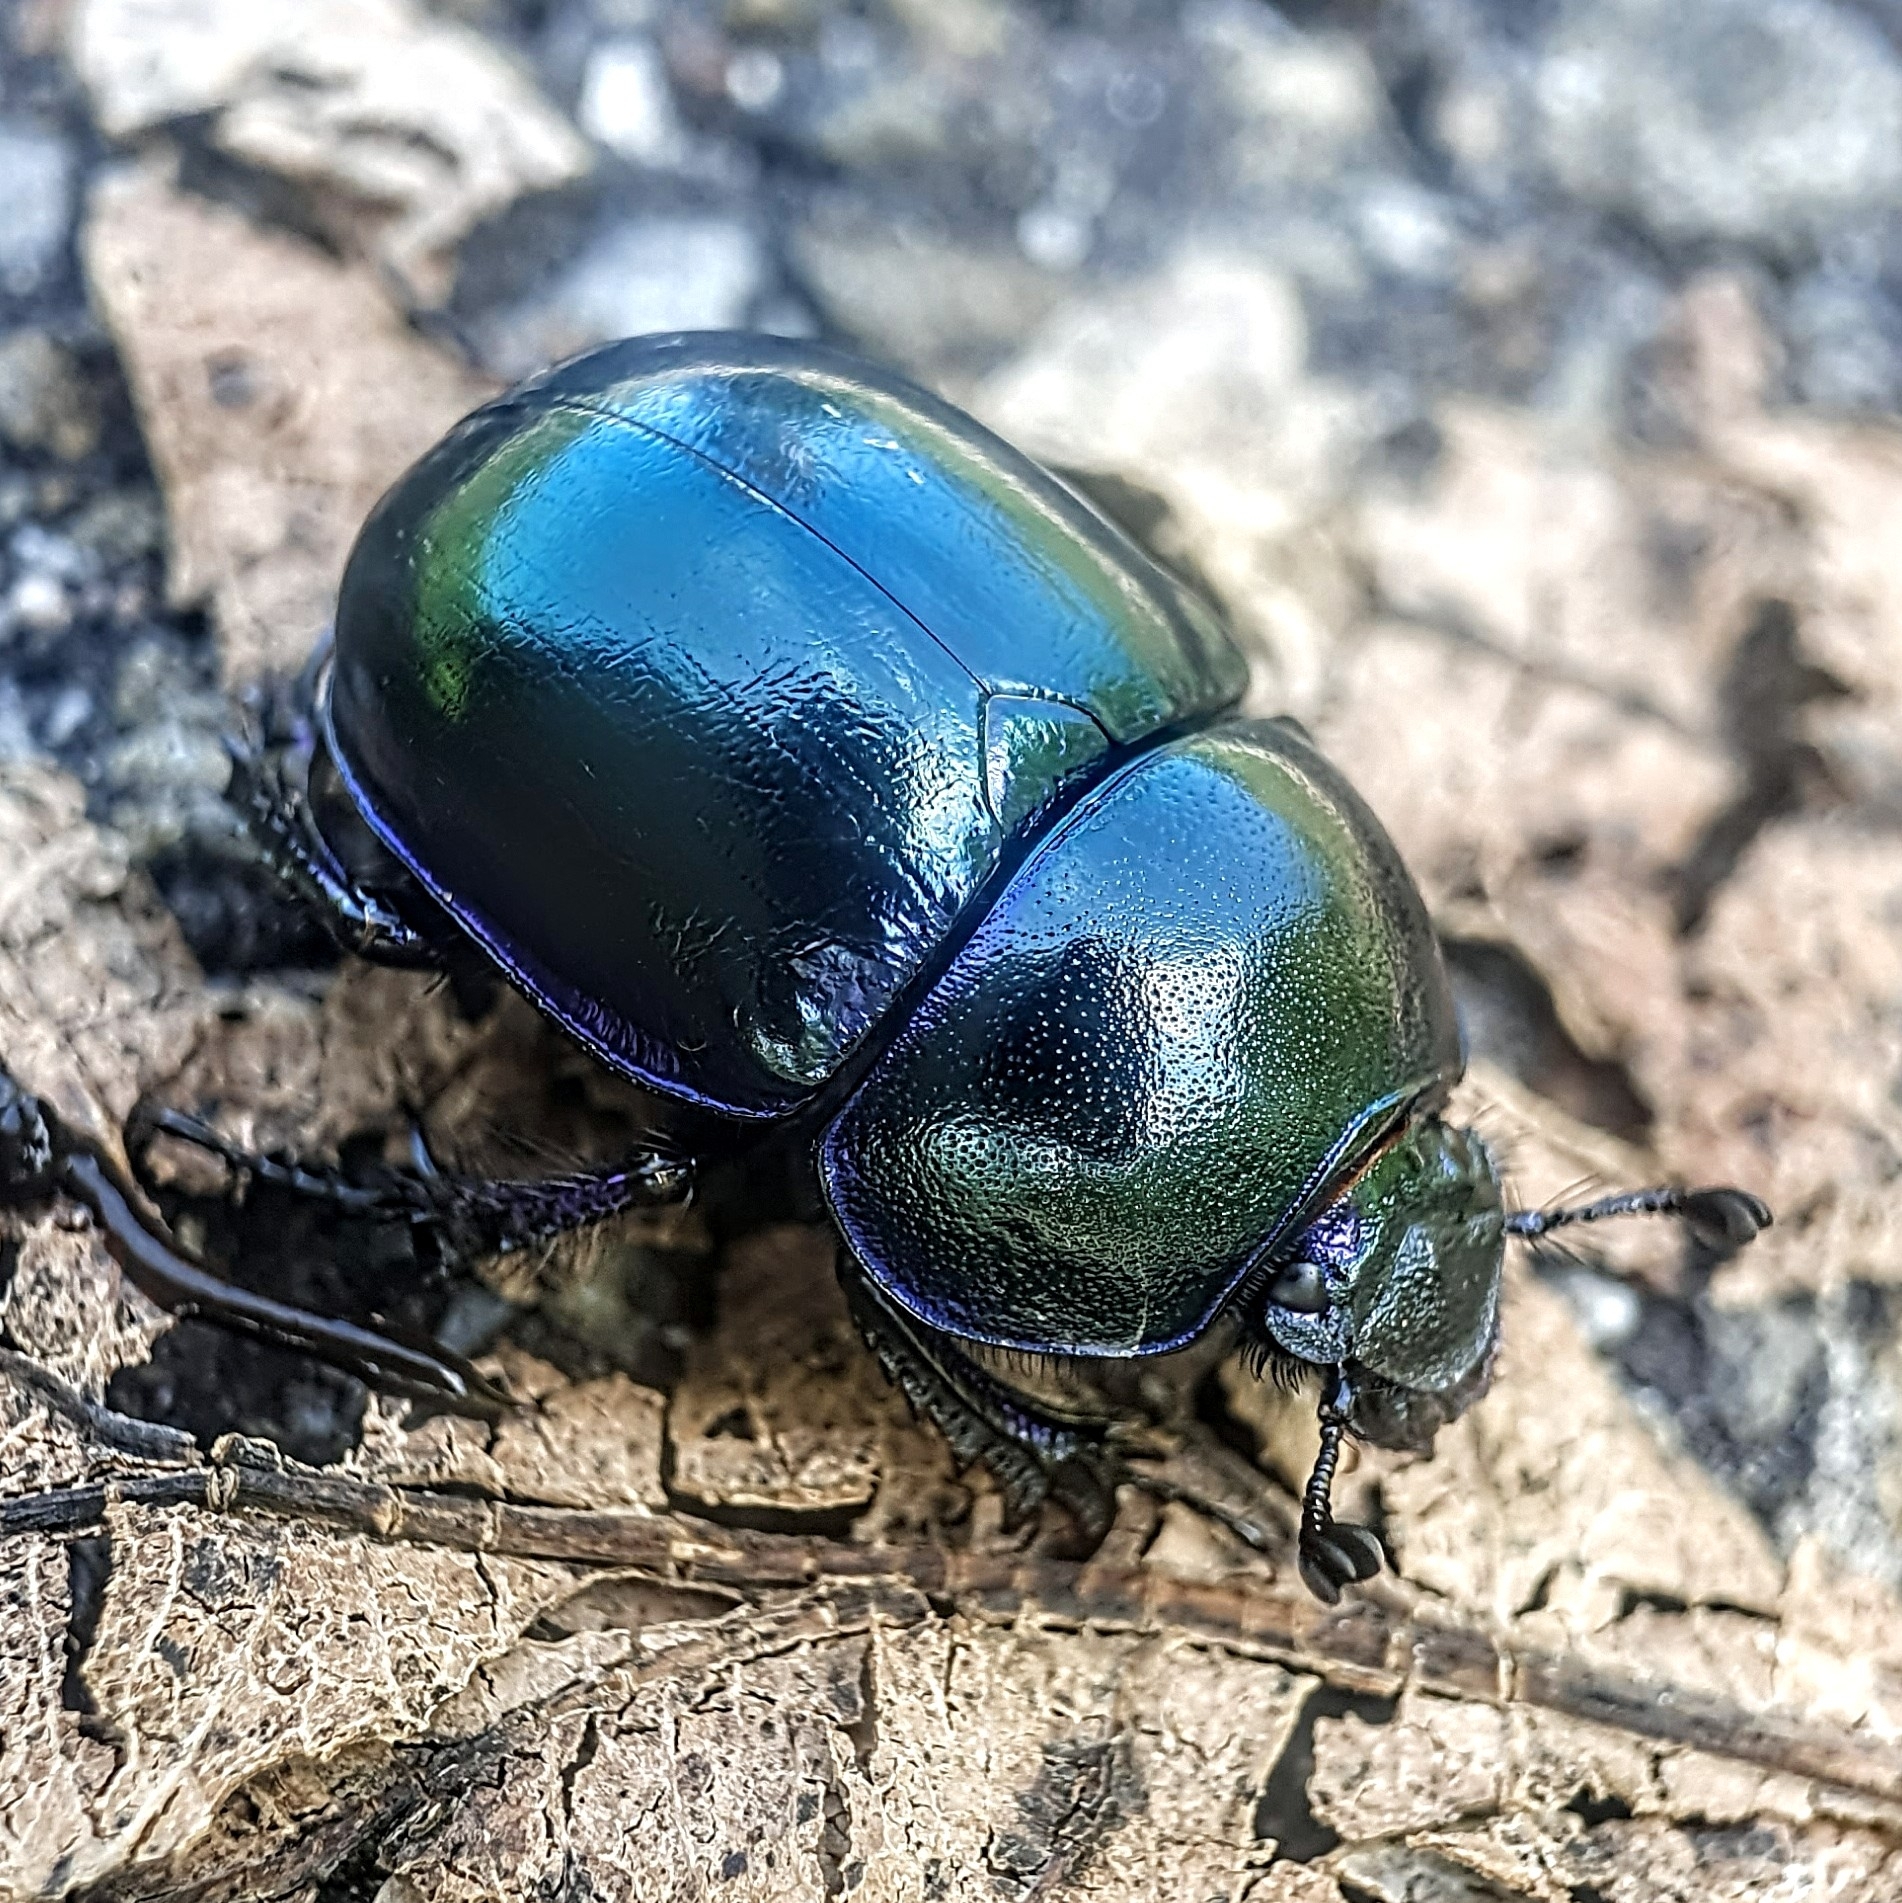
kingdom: Animalia
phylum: Arthropoda
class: Insecta
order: Coleoptera
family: Geotrupidae
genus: Trypocopris
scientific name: Trypocopris vernalis
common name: Spring dumbledor
